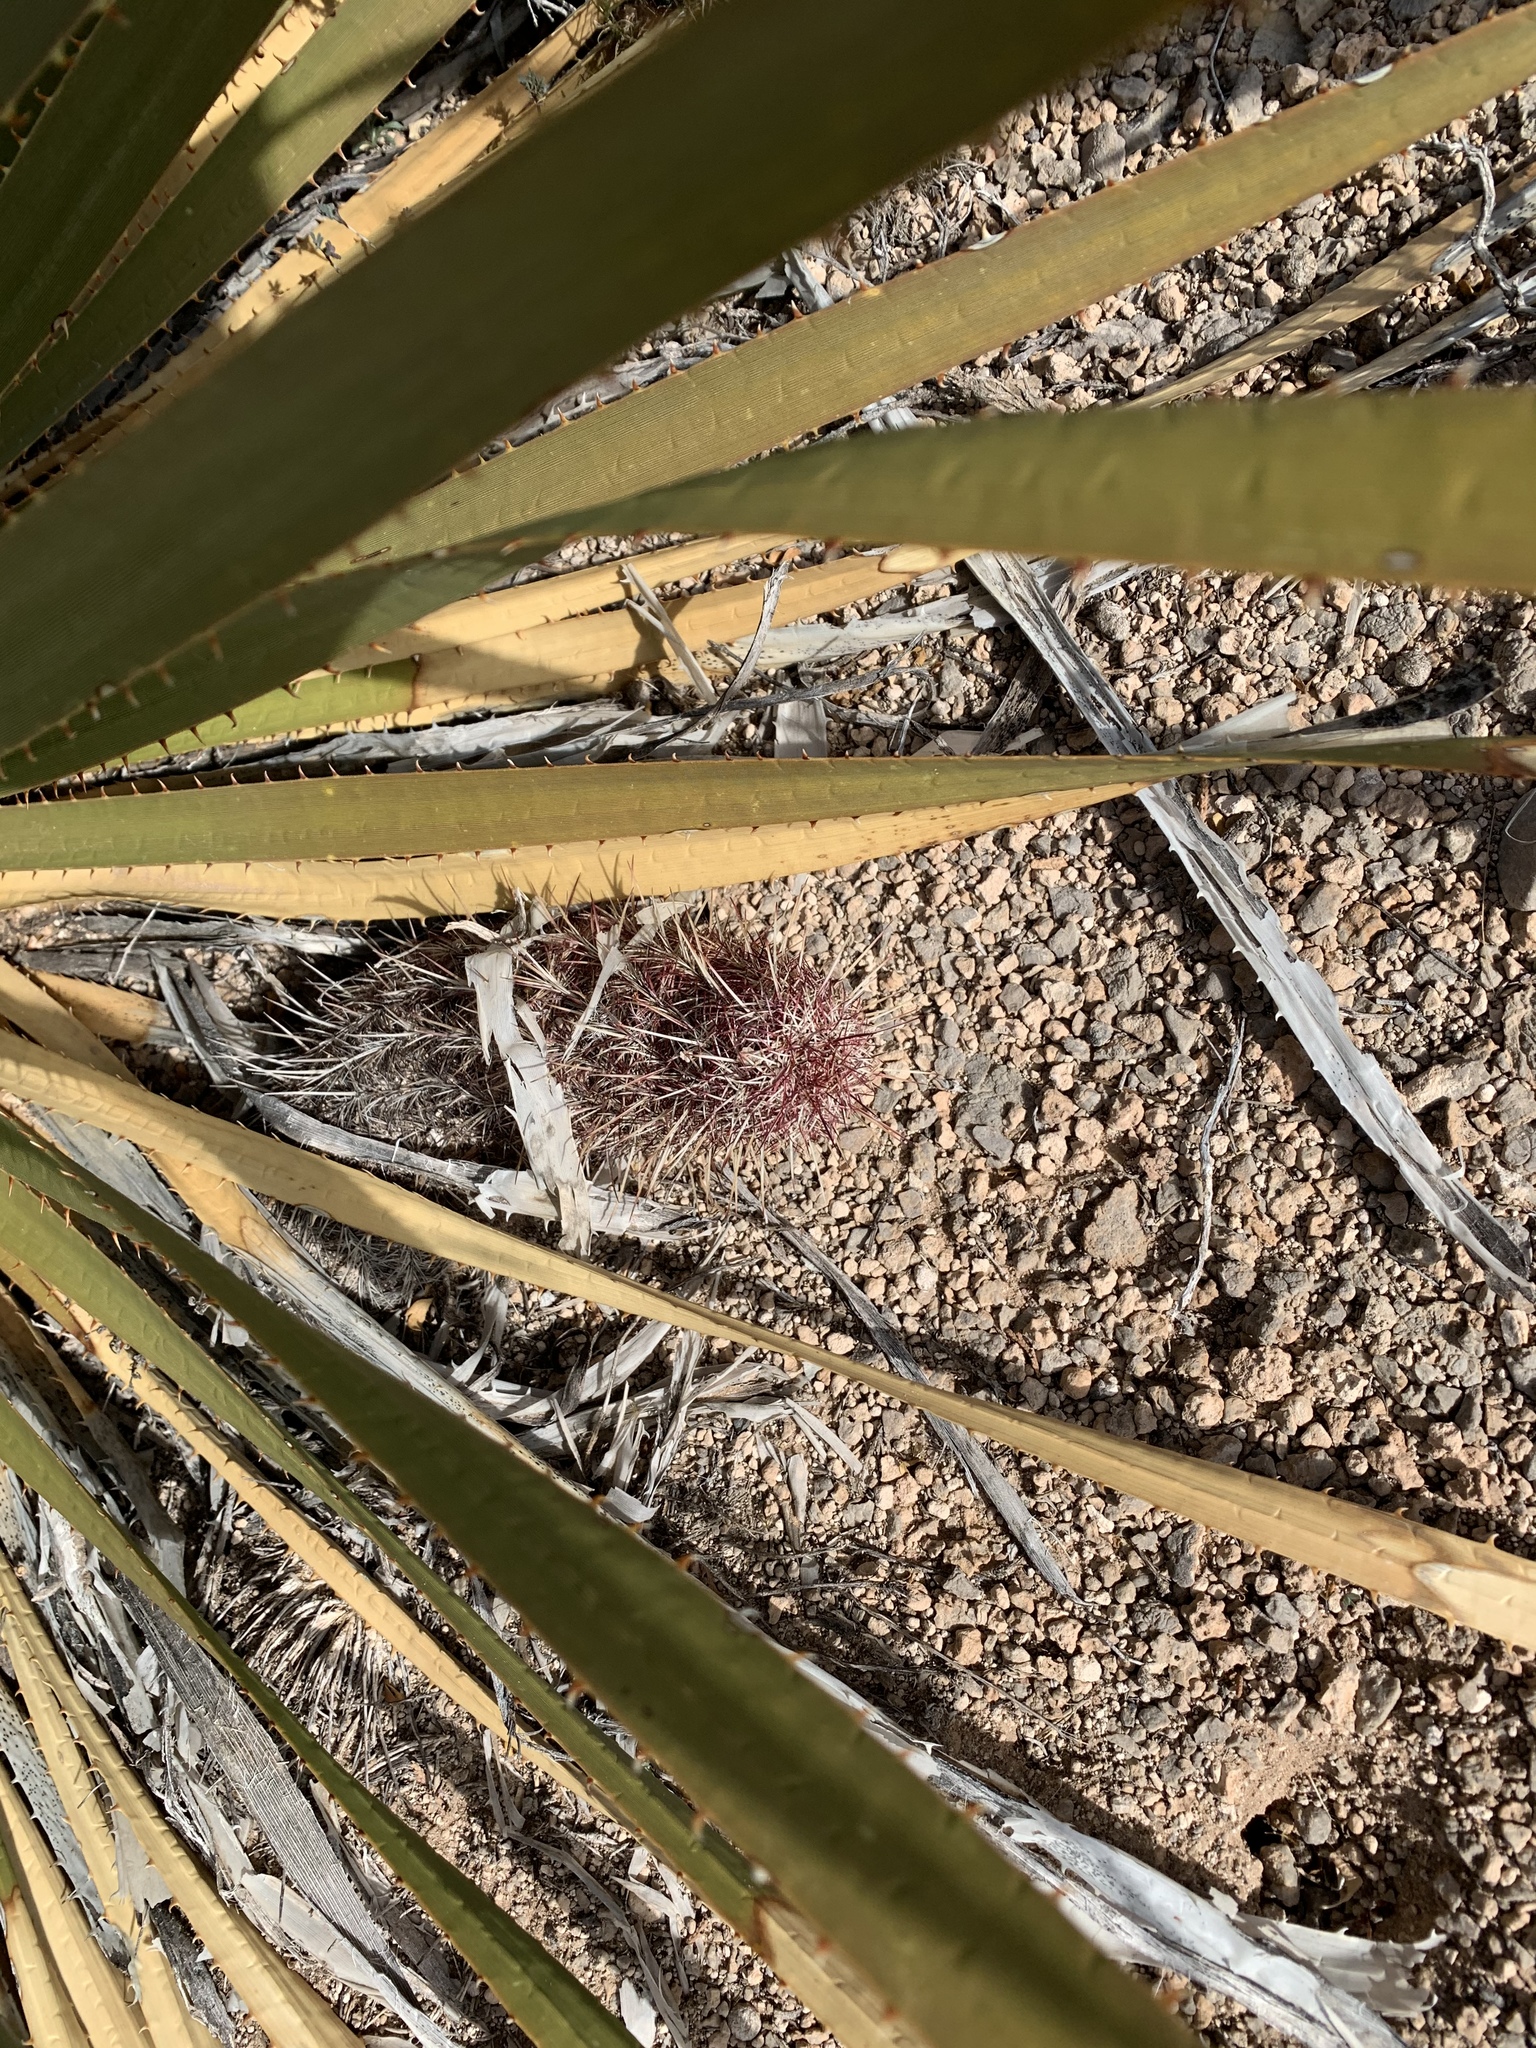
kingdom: Plantae
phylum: Tracheophyta
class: Magnoliopsida
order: Caryophyllales
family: Cactaceae
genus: Echinocereus
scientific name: Echinocereus viridiflorus
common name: Nylon hedgehog cactus
